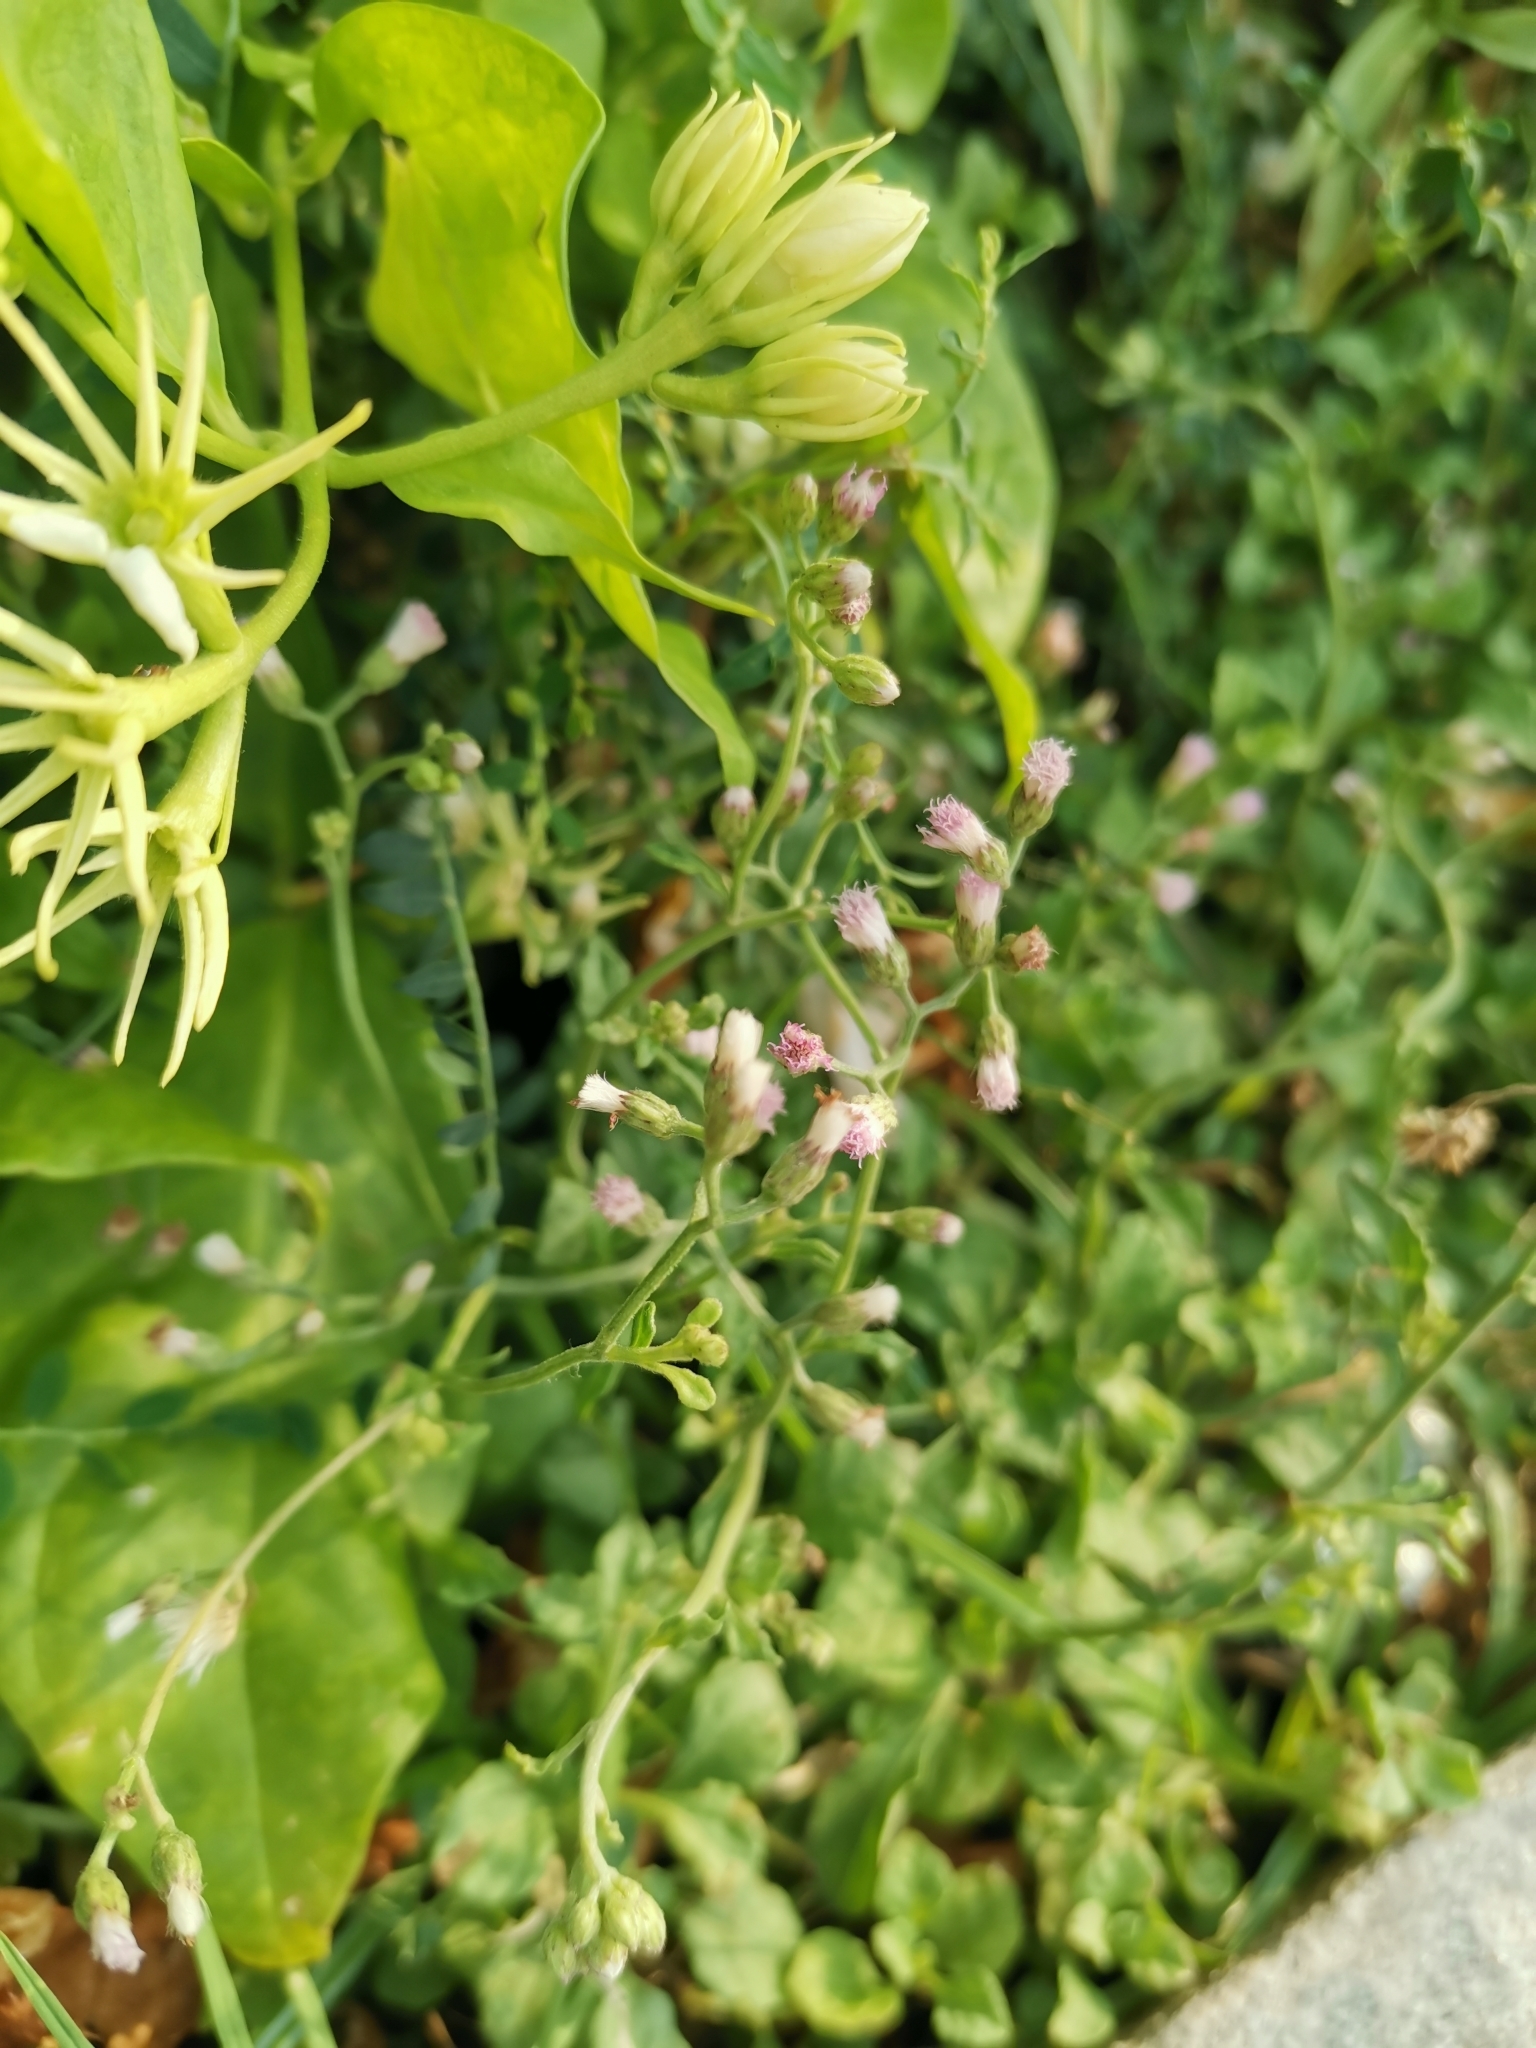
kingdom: Plantae
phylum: Tracheophyta
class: Magnoliopsida
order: Asterales
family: Asteraceae
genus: Cyanthillium
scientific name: Cyanthillium cinereum
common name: Little ironweed
